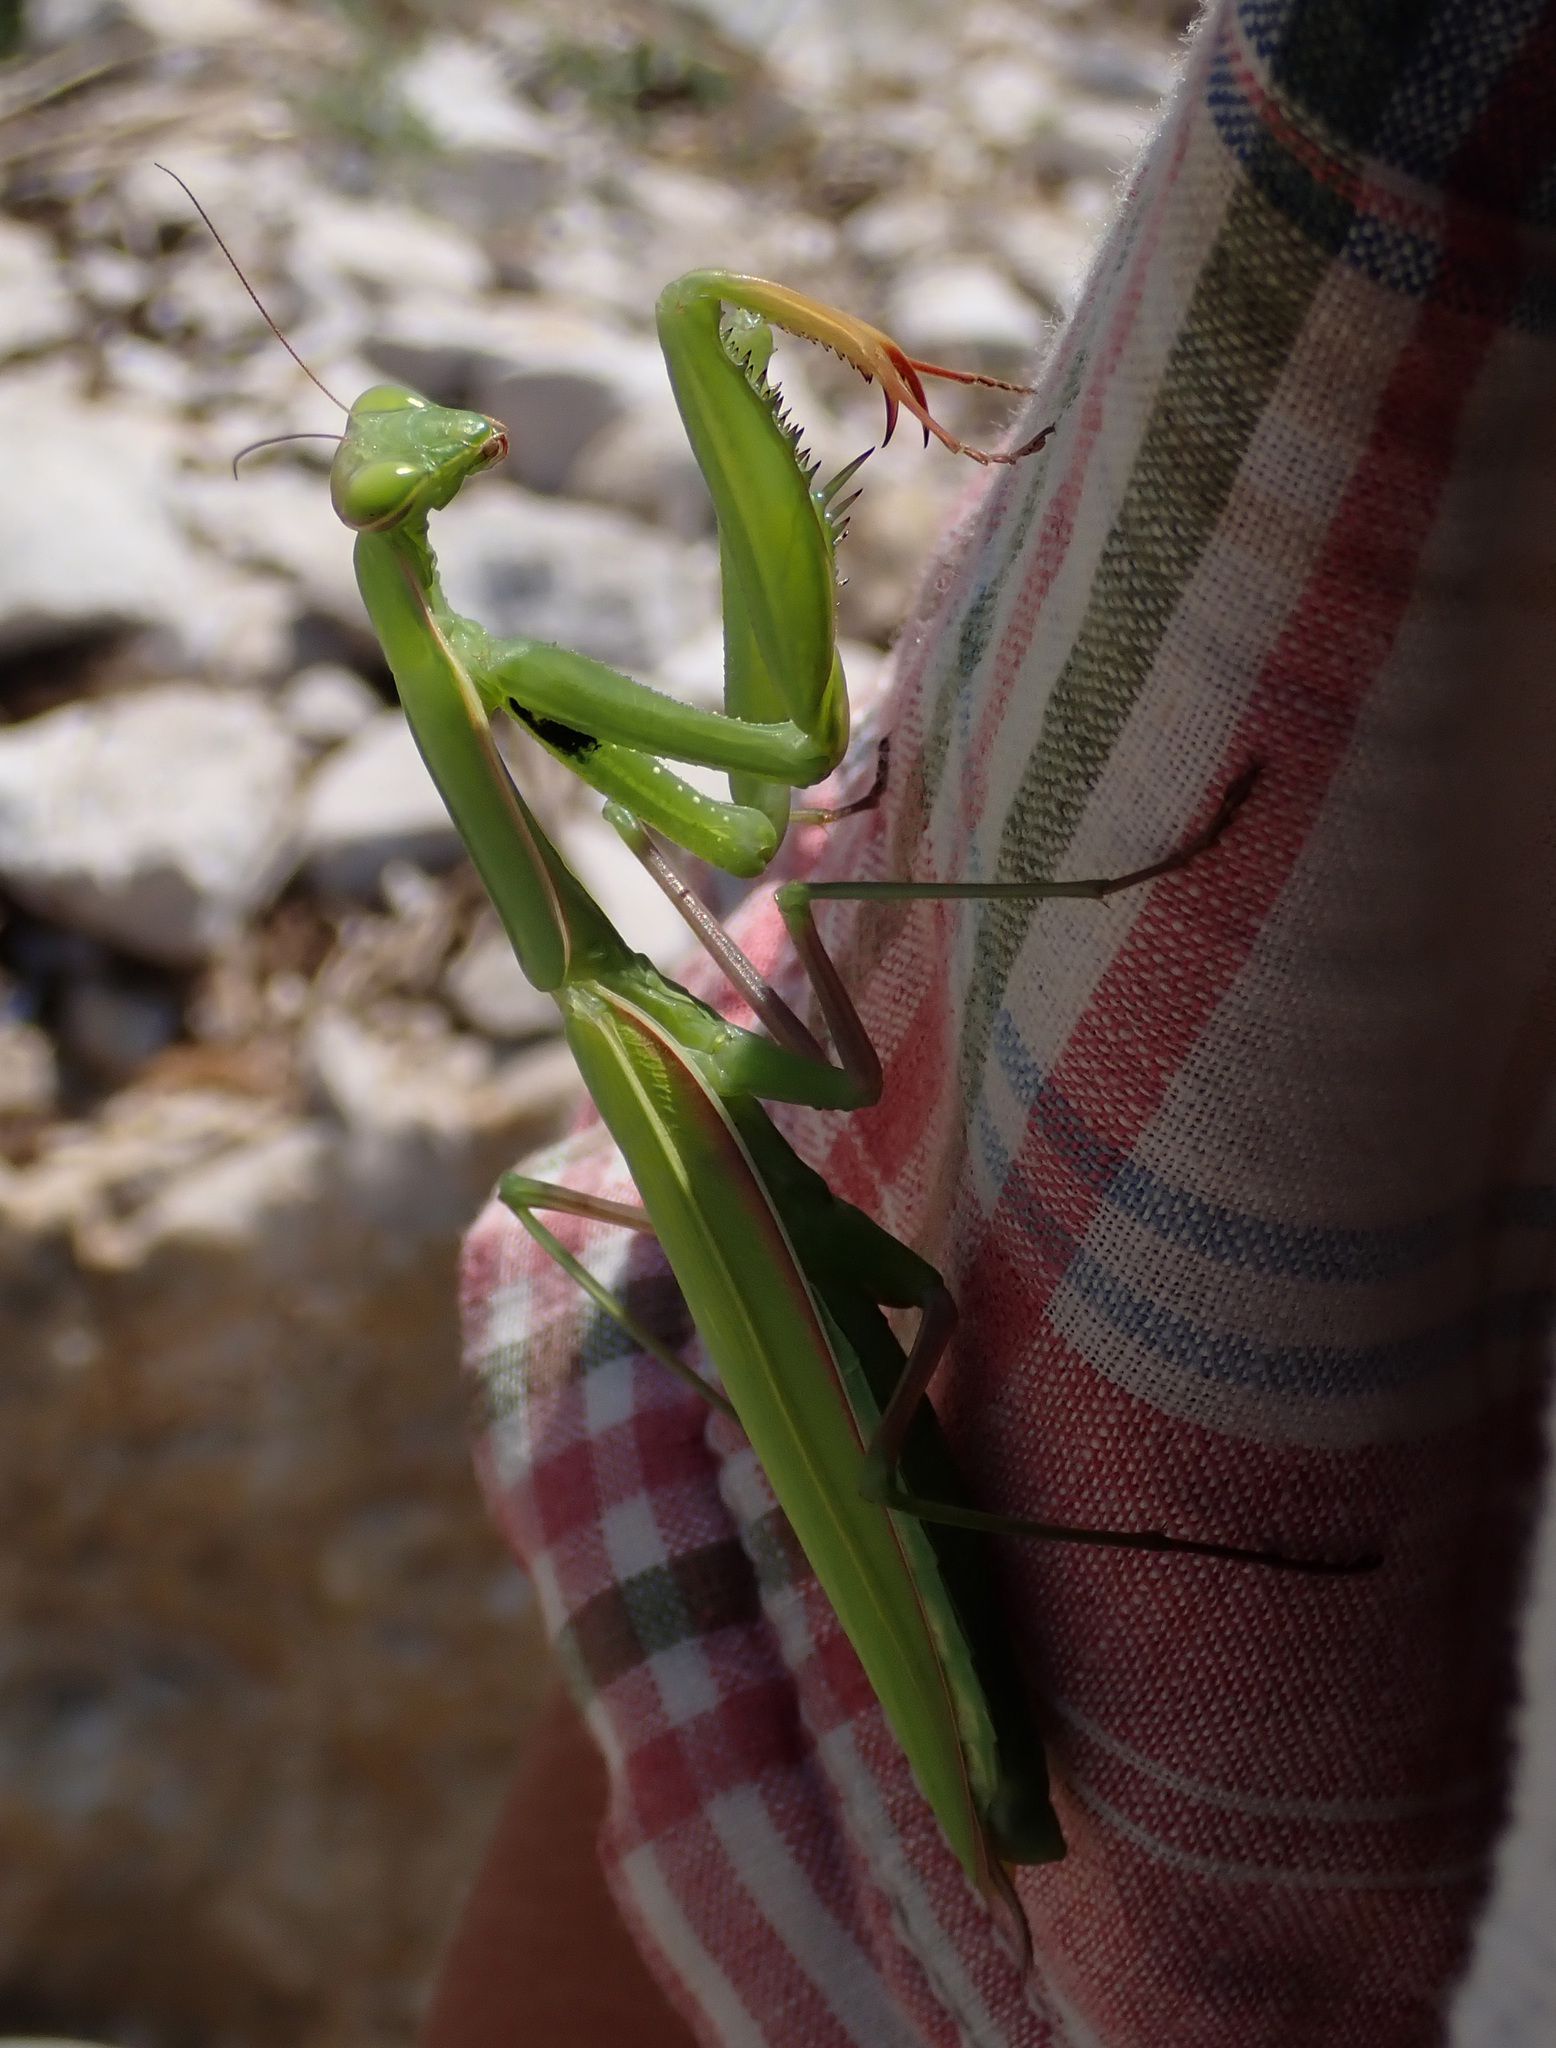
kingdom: Animalia
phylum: Arthropoda
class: Insecta
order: Mantodea
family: Mantidae
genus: Mantis
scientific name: Mantis religiosa
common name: Praying mantis
